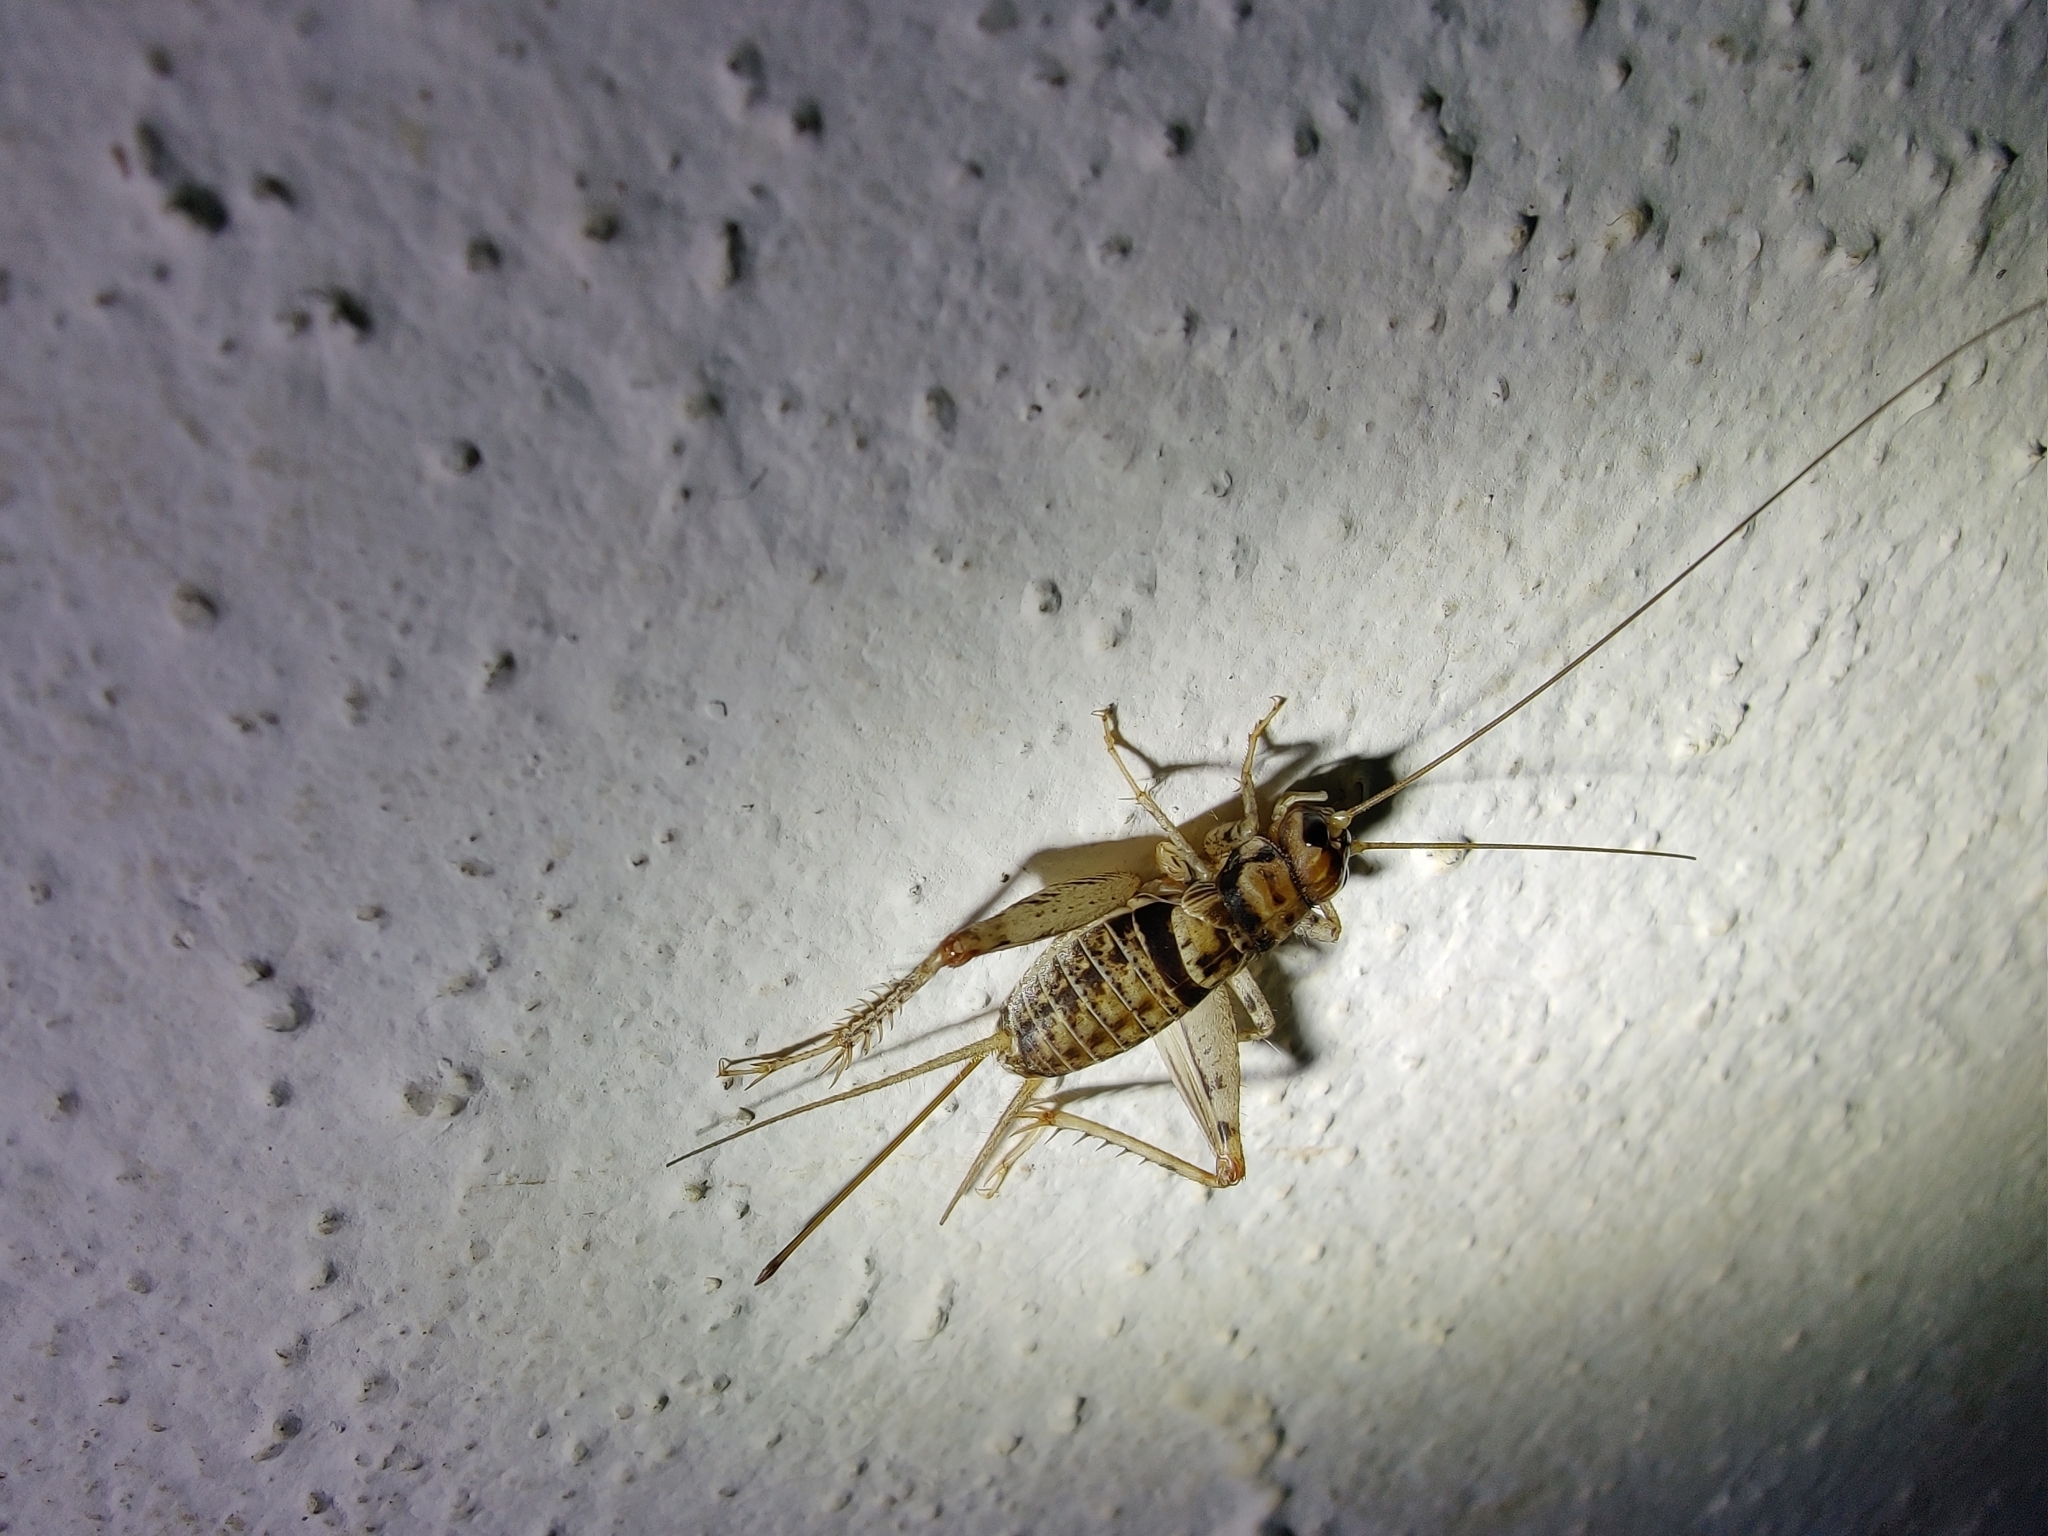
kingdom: Animalia
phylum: Arthropoda
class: Insecta
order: Orthoptera
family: Gryllidae
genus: Gryllodes
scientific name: Gryllodes sigillatus
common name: Tropical house cricket
